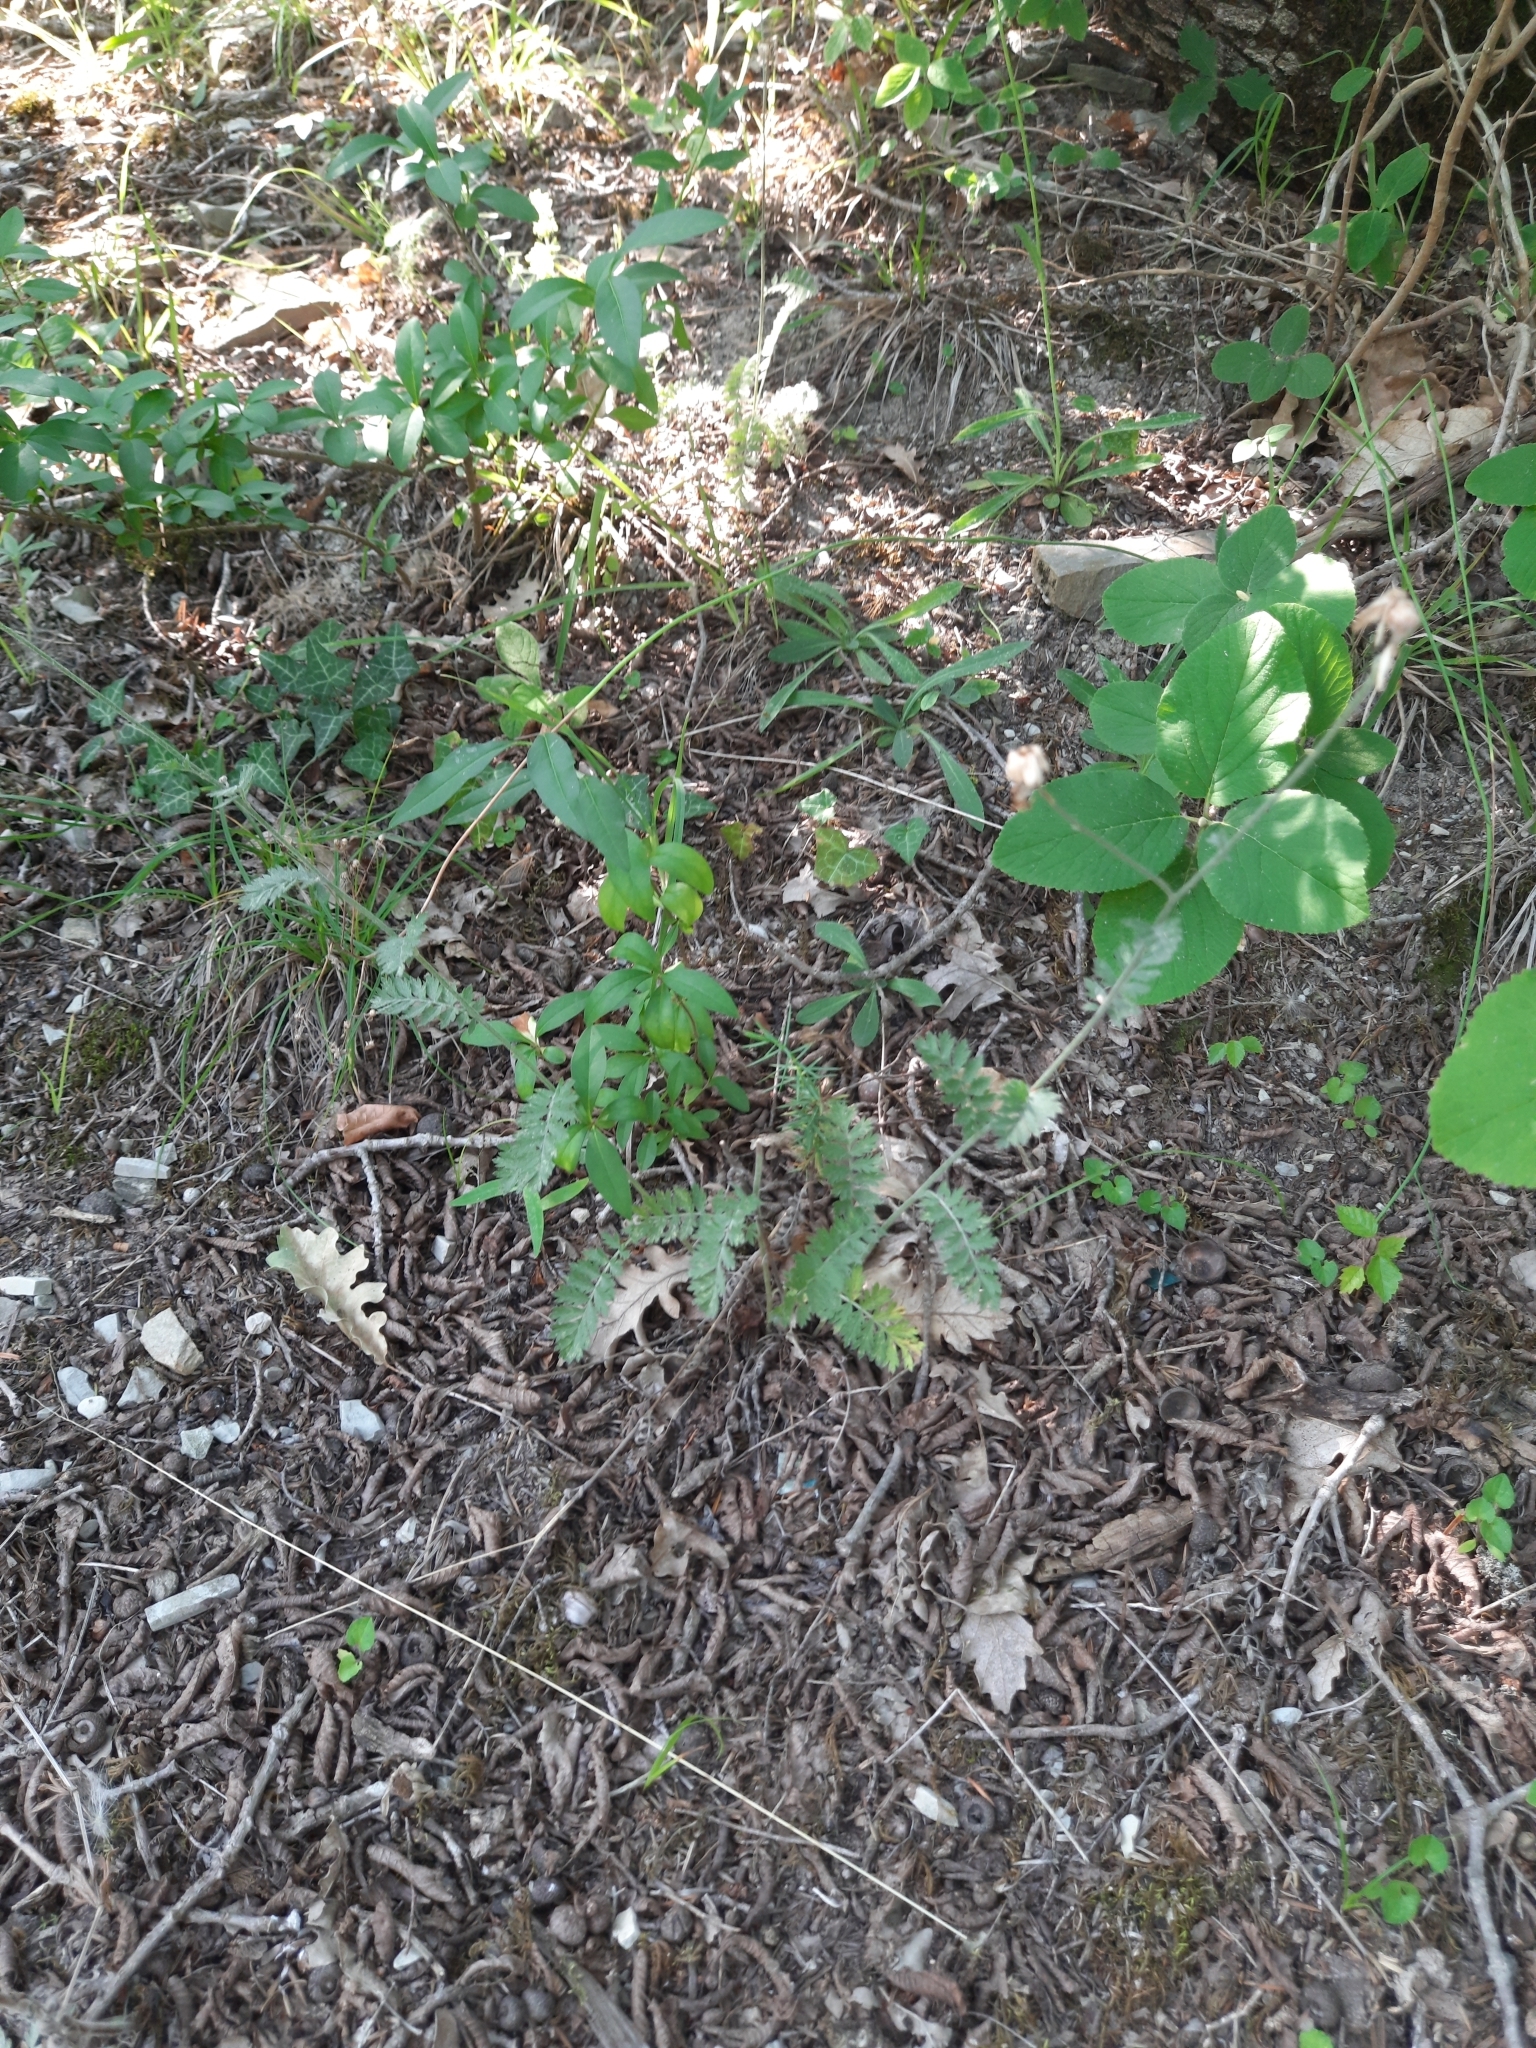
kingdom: Plantae
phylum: Tracheophyta
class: Magnoliopsida
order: Asterales
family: Asteraceae
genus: Tanacetum
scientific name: Tanacetum poteriifolium
